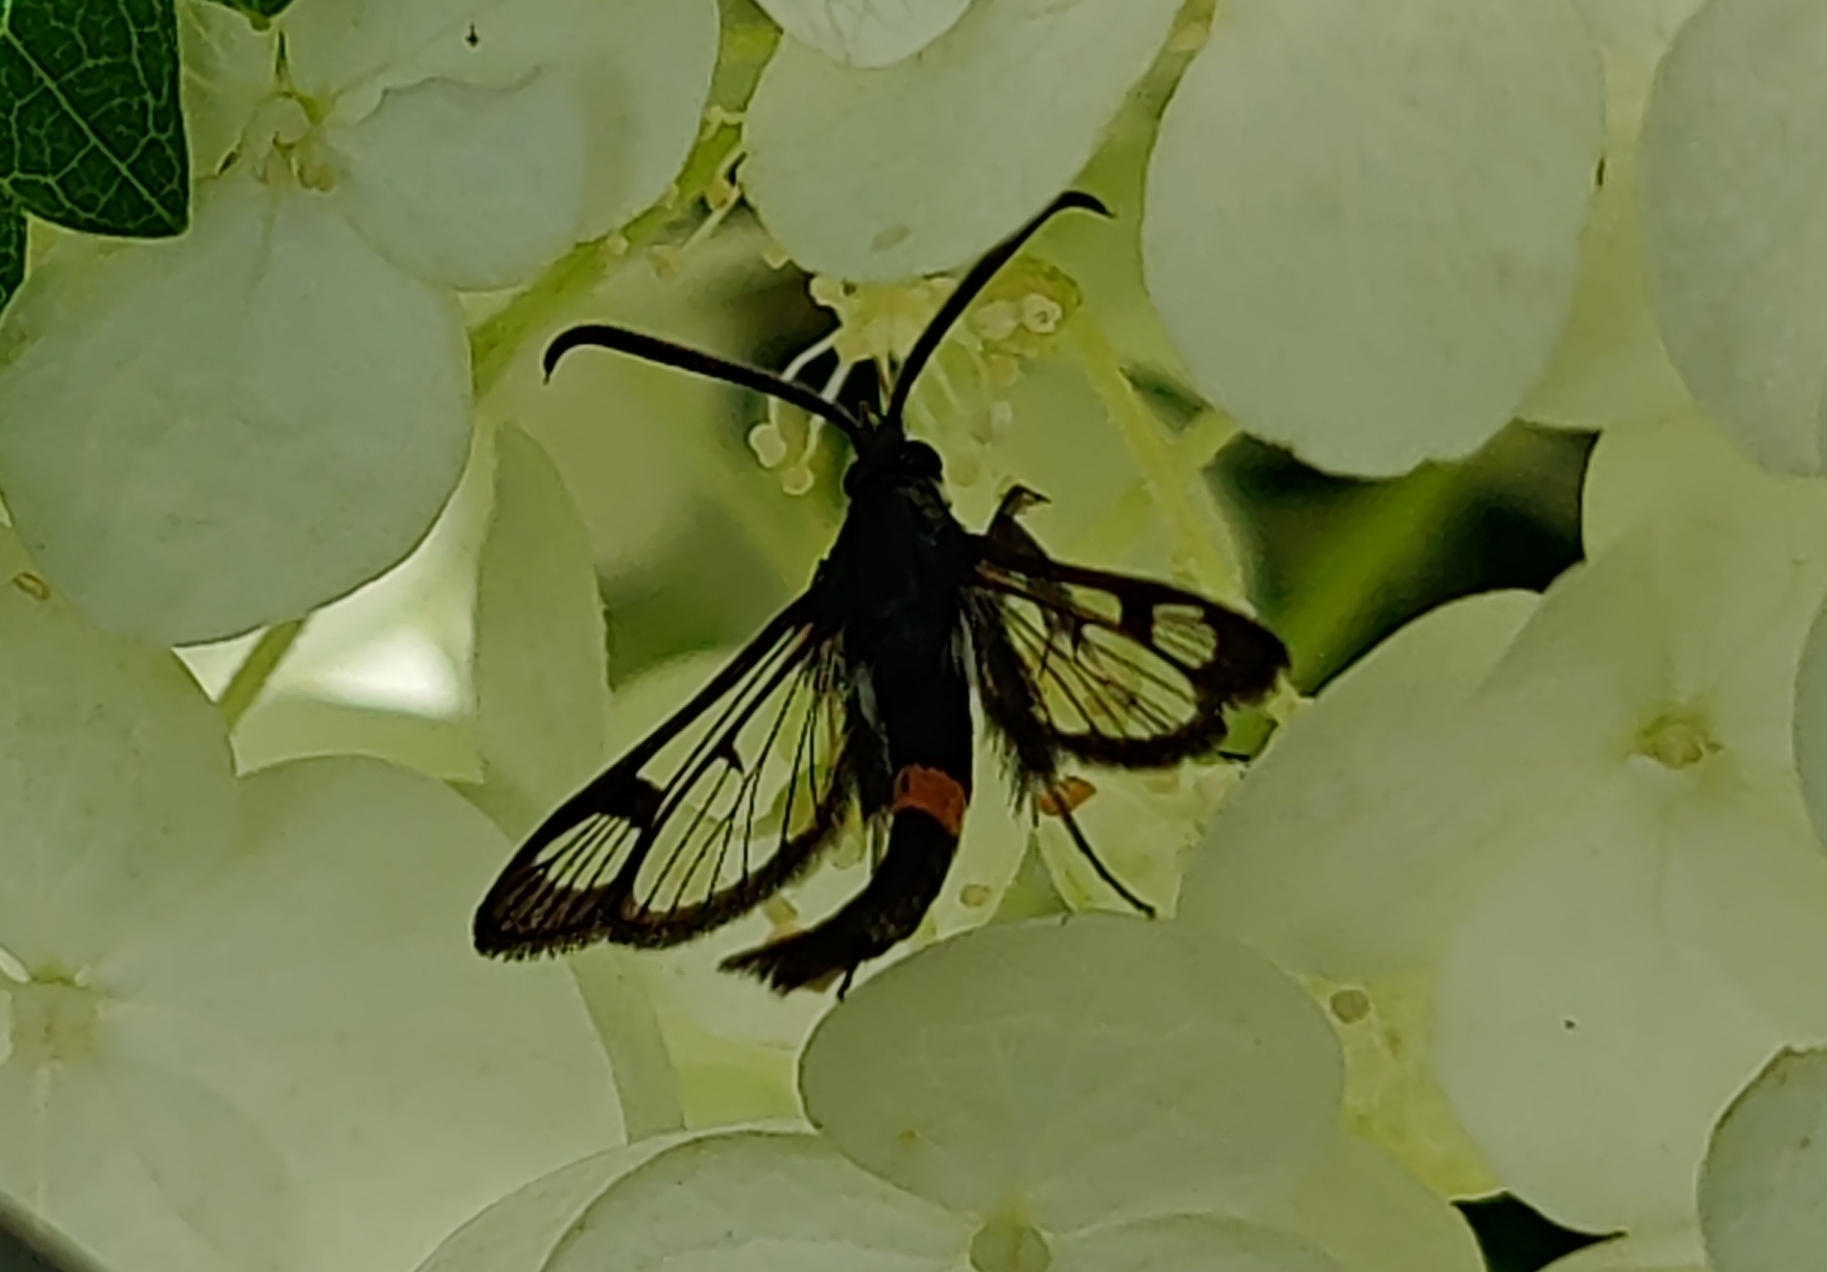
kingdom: Animalia
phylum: Arthropoda
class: Insecta
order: Lepidoptera
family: Sesiidae
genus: Synanthedon
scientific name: Synanthedon myopaeformis
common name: Red-belted clearwing
